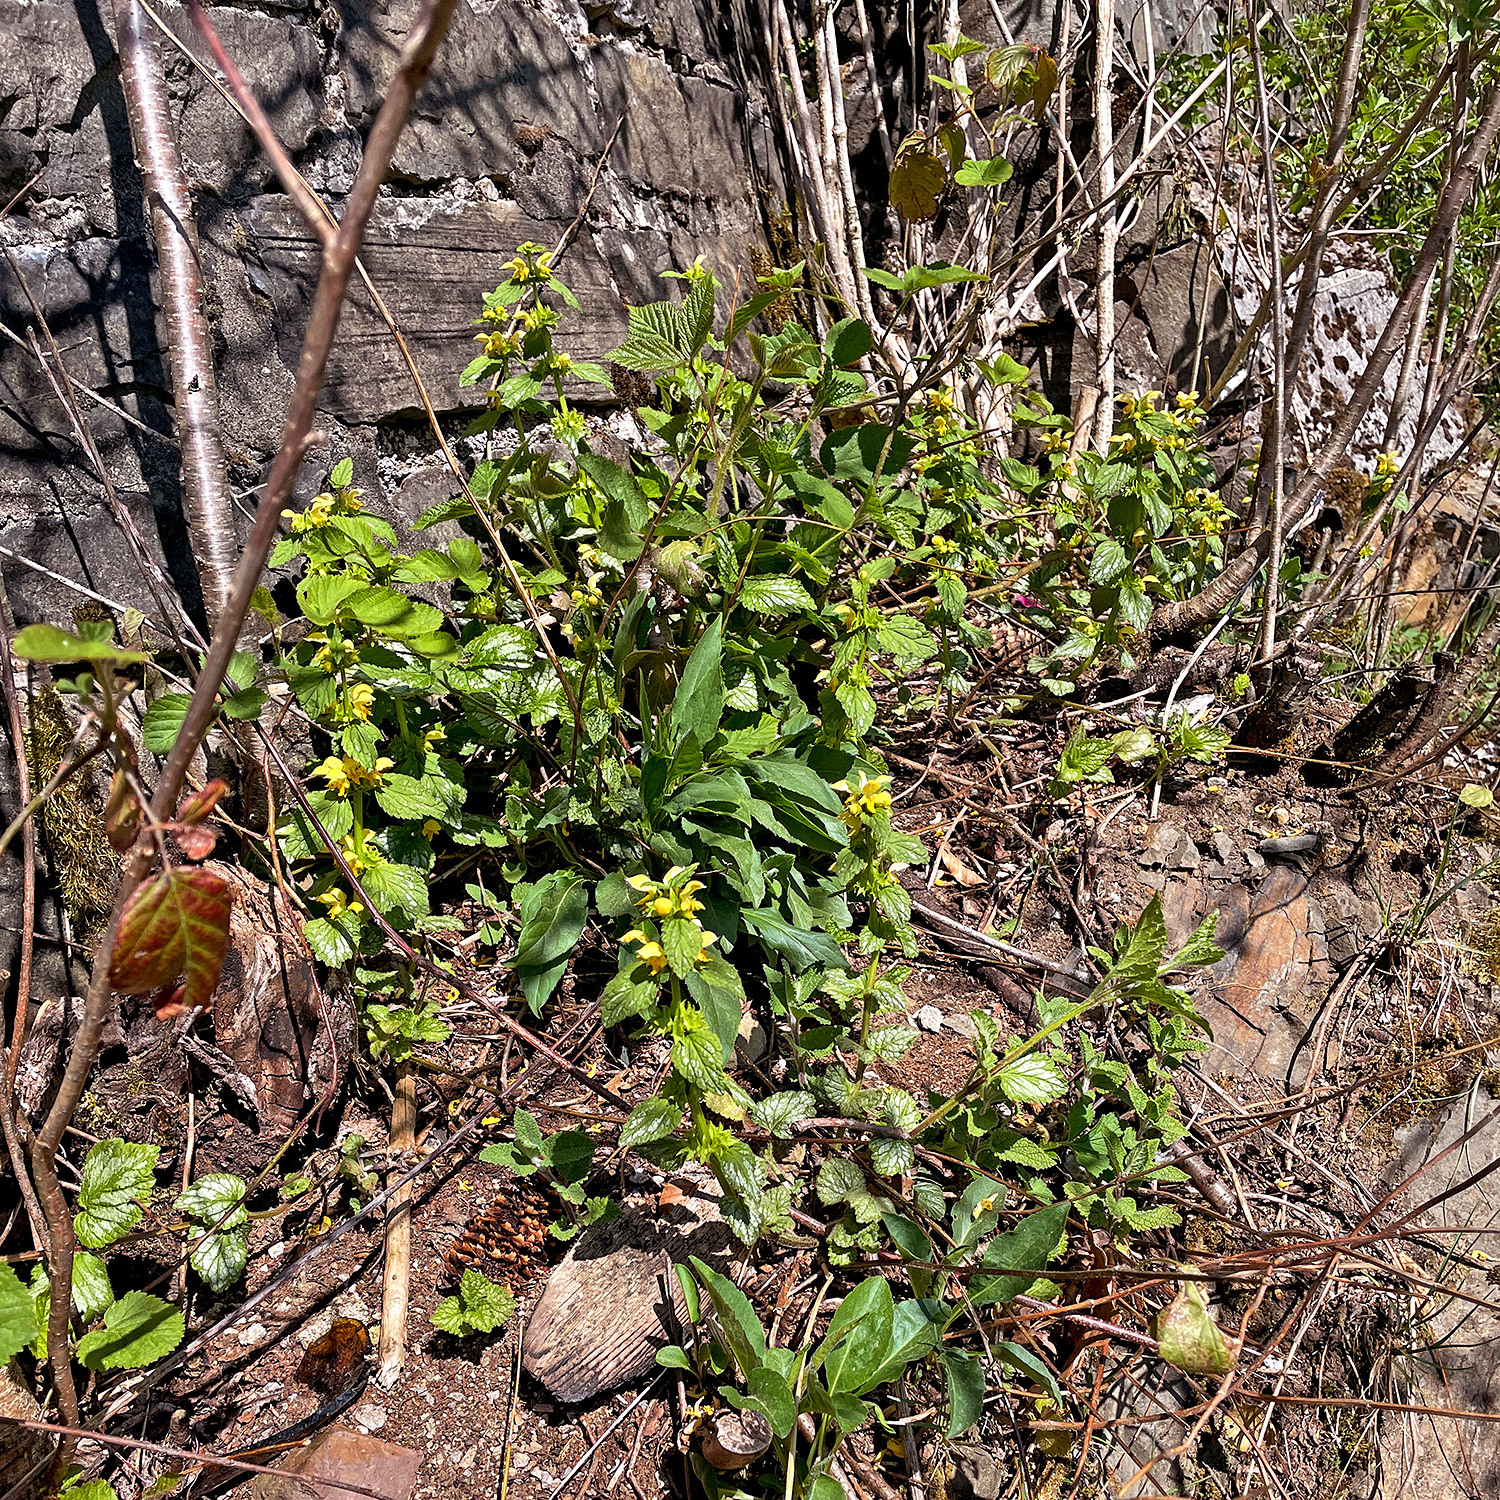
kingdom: Plantae
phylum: Tracheophyta
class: Magnoliopsida
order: Lamiales
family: Lamiaceae
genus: Lamium
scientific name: Lamium galeobdolon
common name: Yellow archangel
